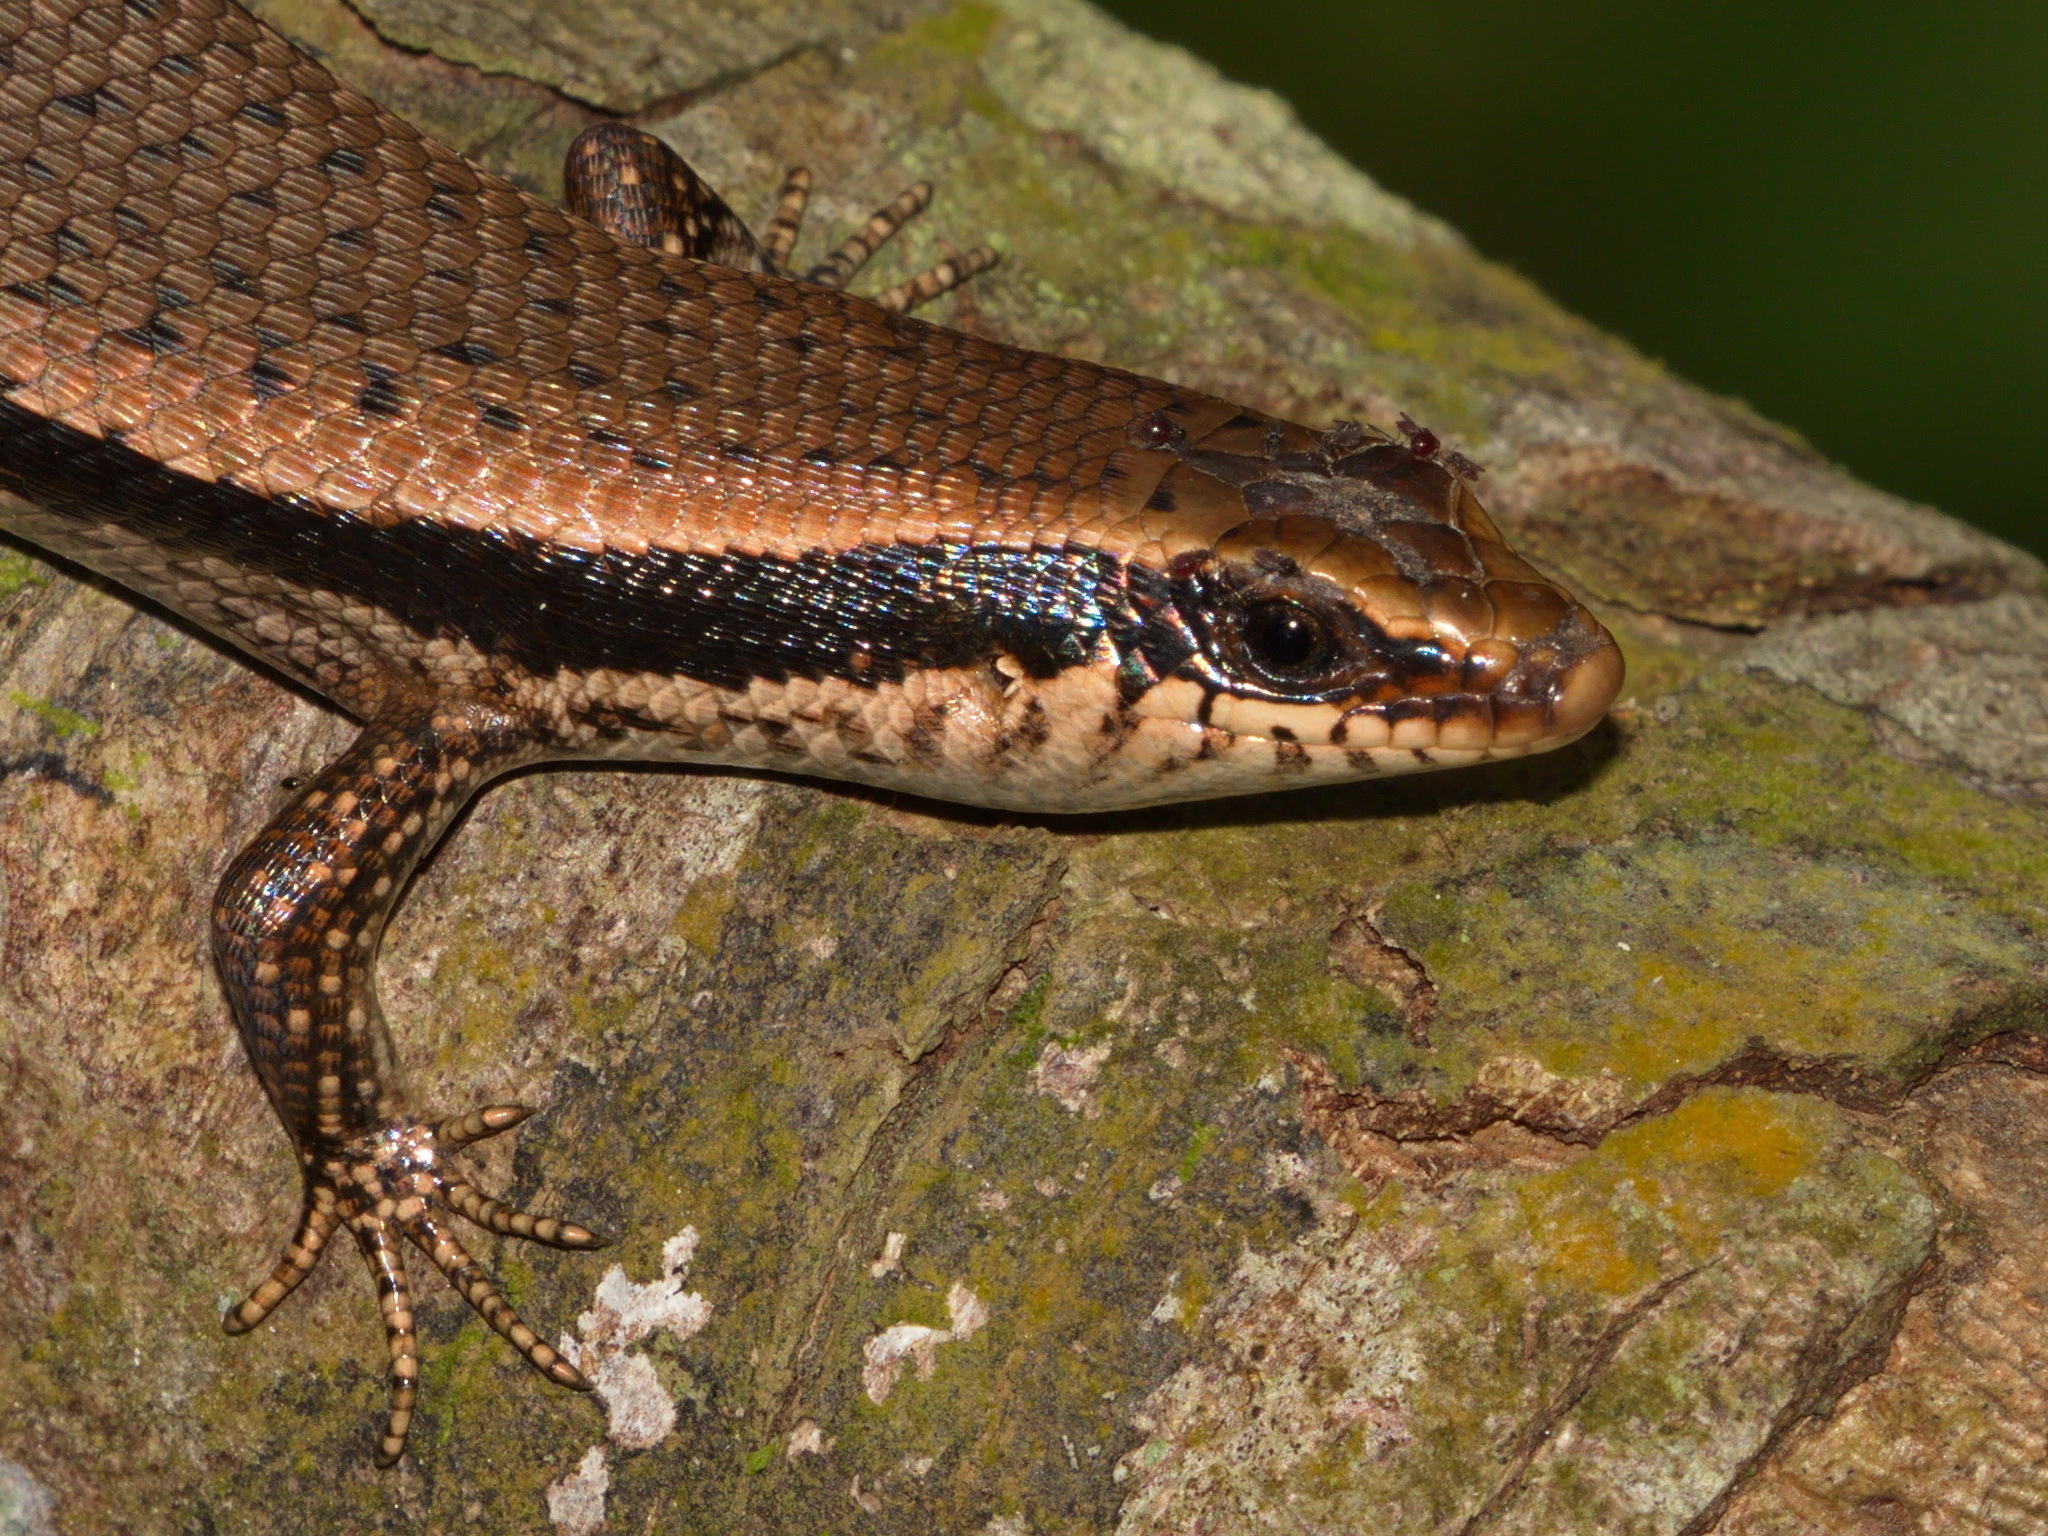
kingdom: Animalia
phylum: Chordata
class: Squamata
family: Scincidae
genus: Toenayar
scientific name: Toenayar novemcarinata
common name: Anderson's mabuya
